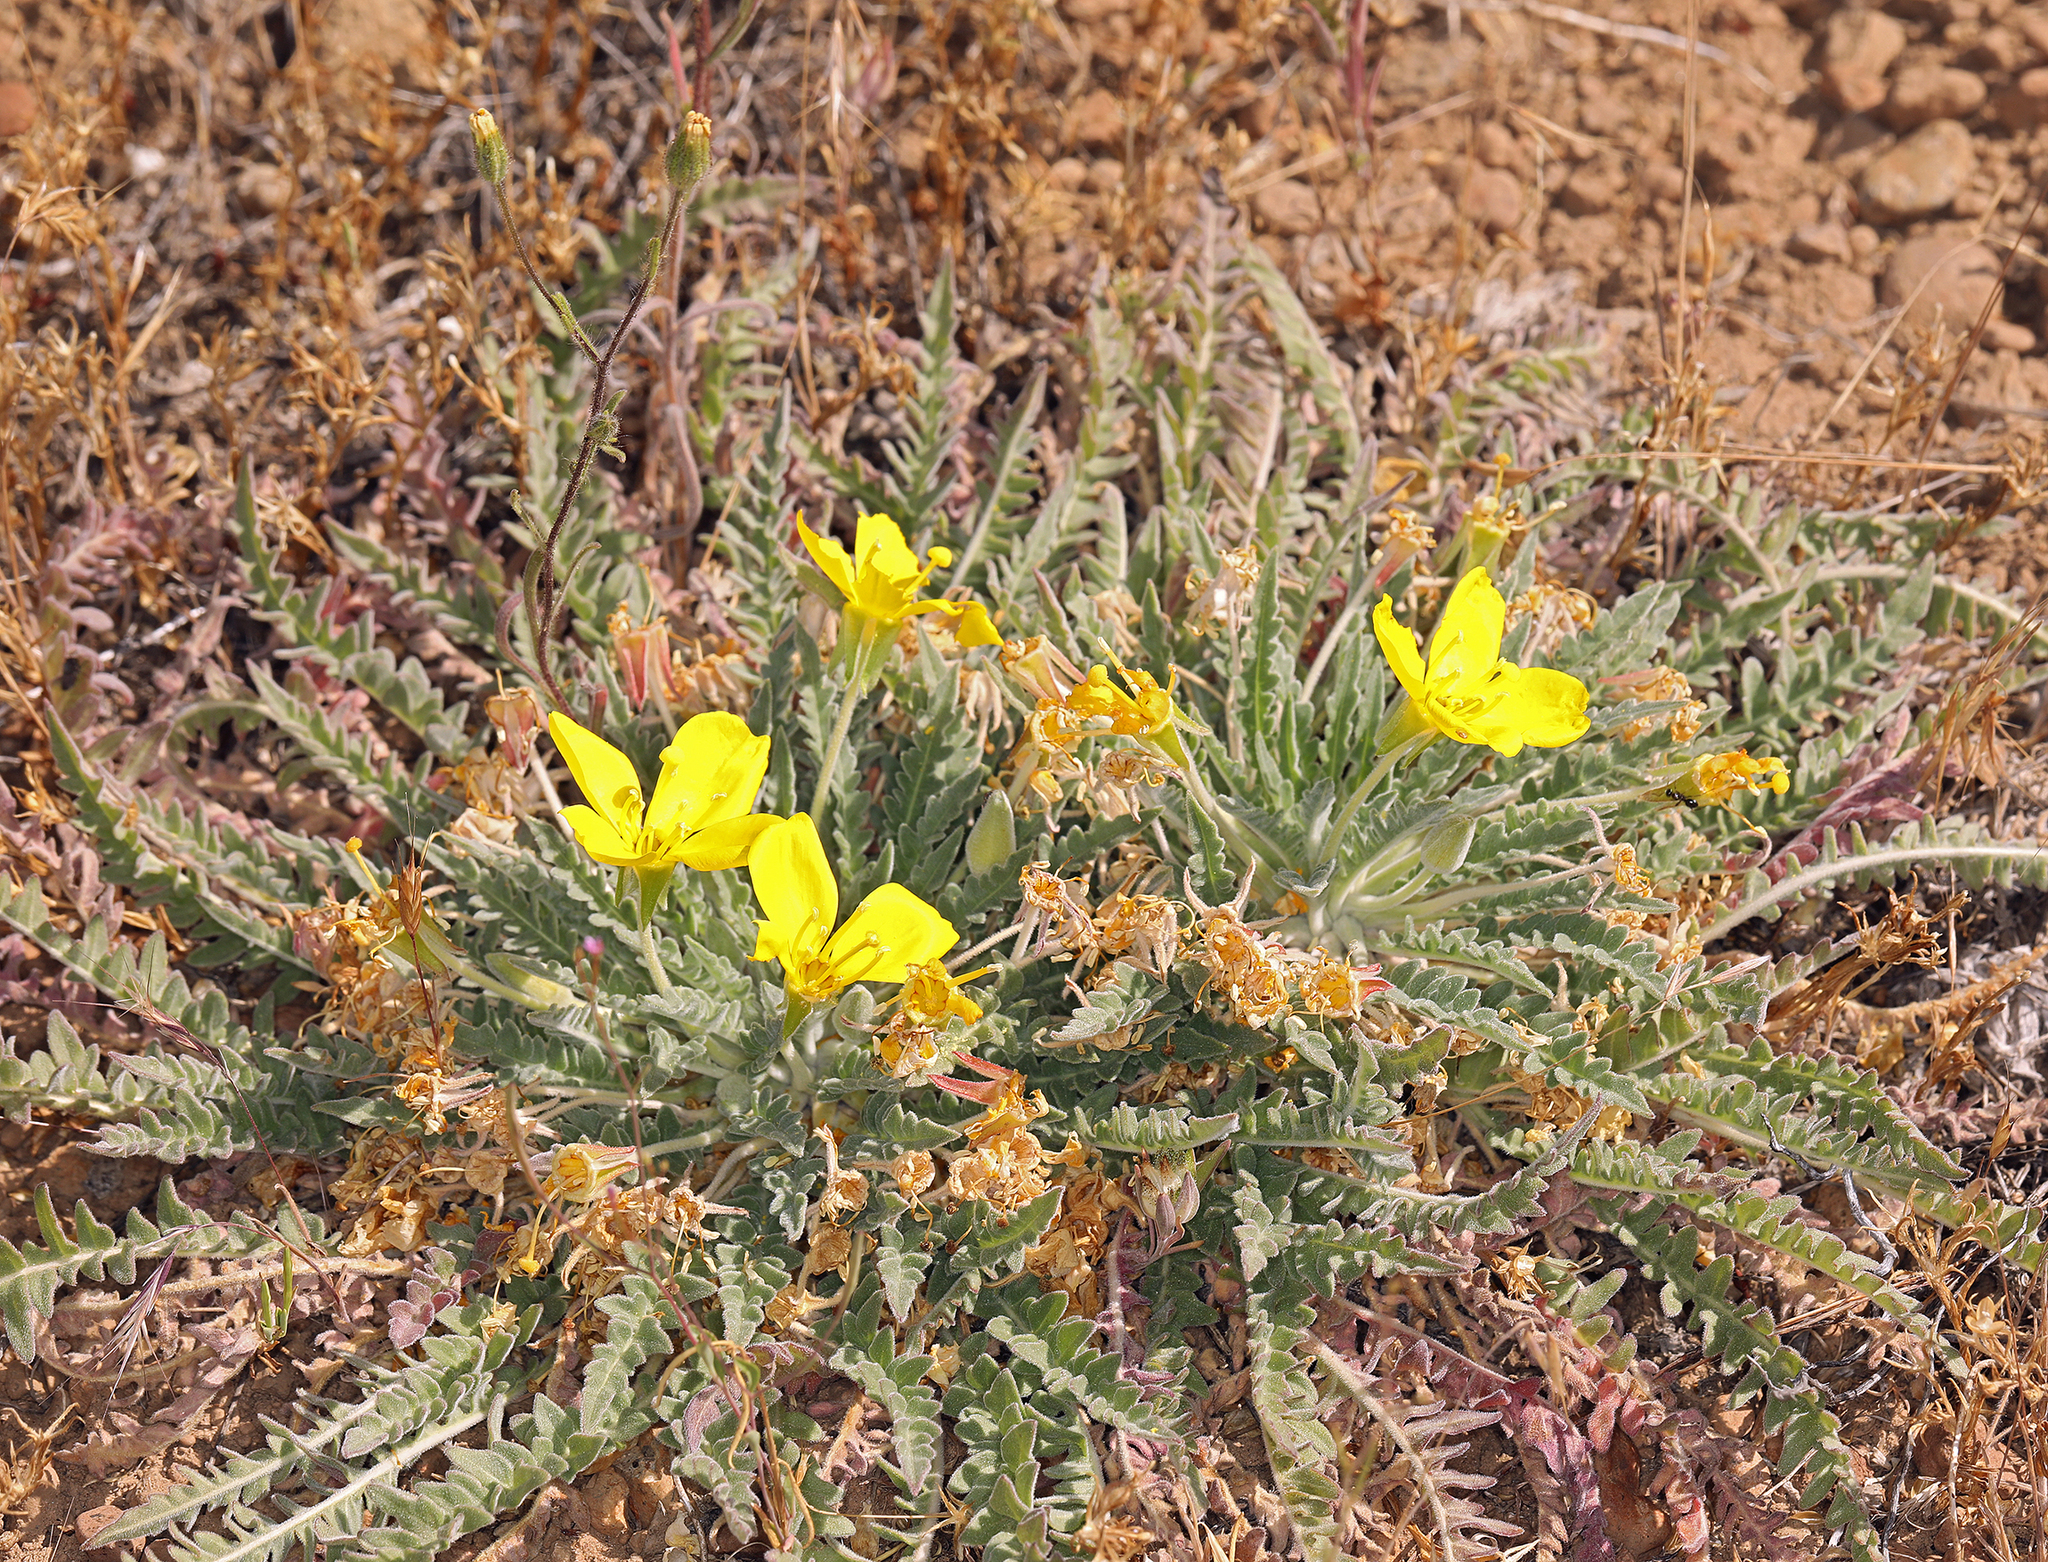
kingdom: Plantae
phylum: Tracheophyta
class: Magnoliopsida
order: Myrtales
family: Onagraceae
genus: Taraxia
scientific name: Taraxia tanacetifolia
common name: Tansyleaf evening primrose
